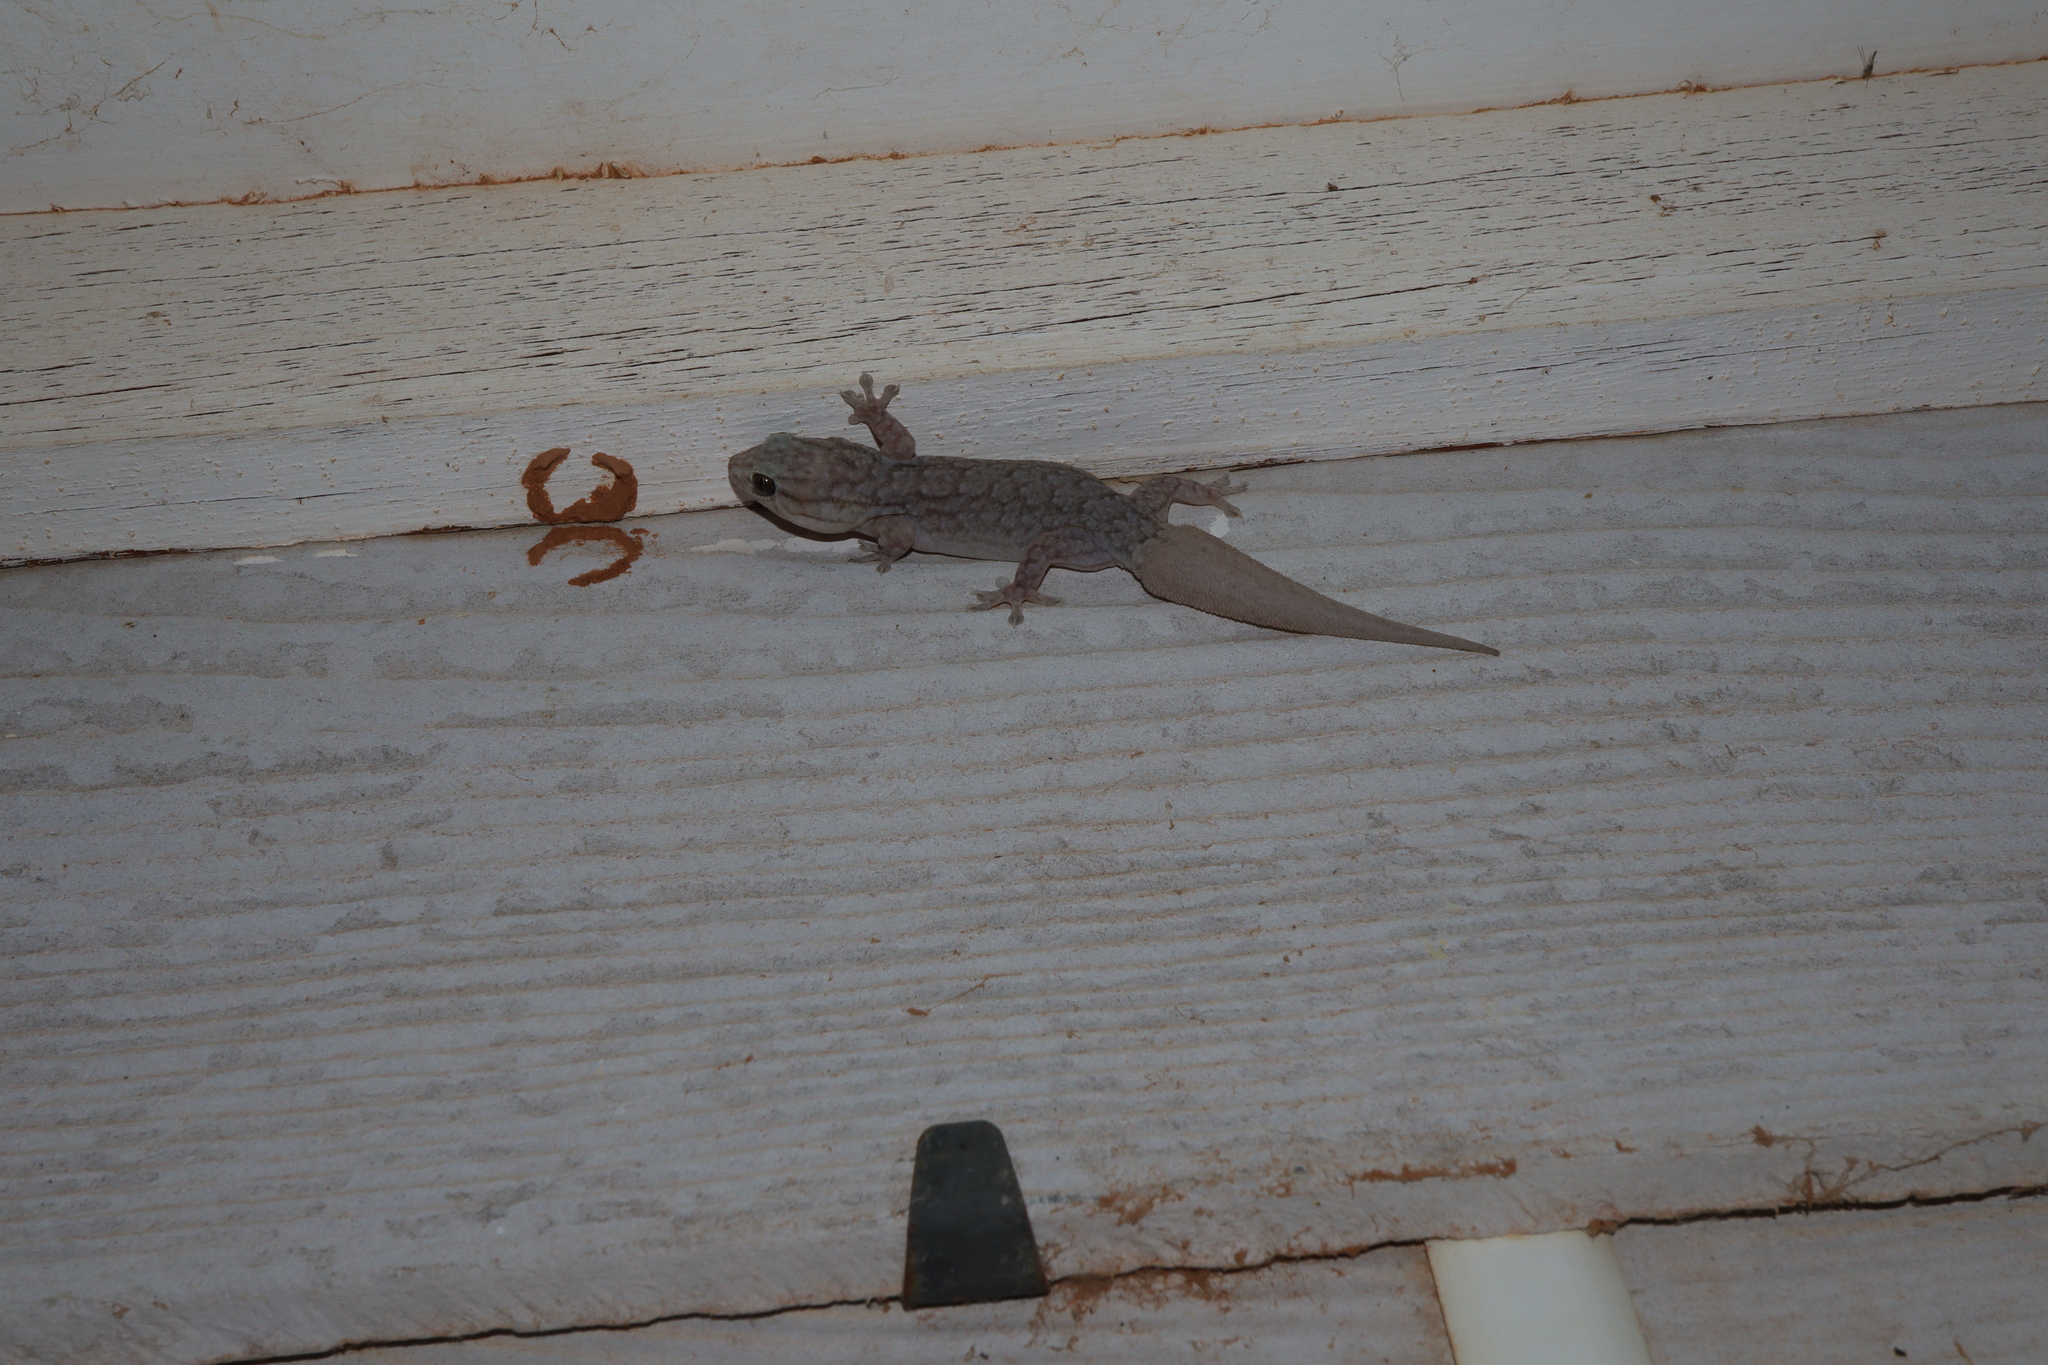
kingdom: Animalia
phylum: Chordata
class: Squamata
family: Gekkonidae
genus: Gehyra
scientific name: Gehyra versicolor
